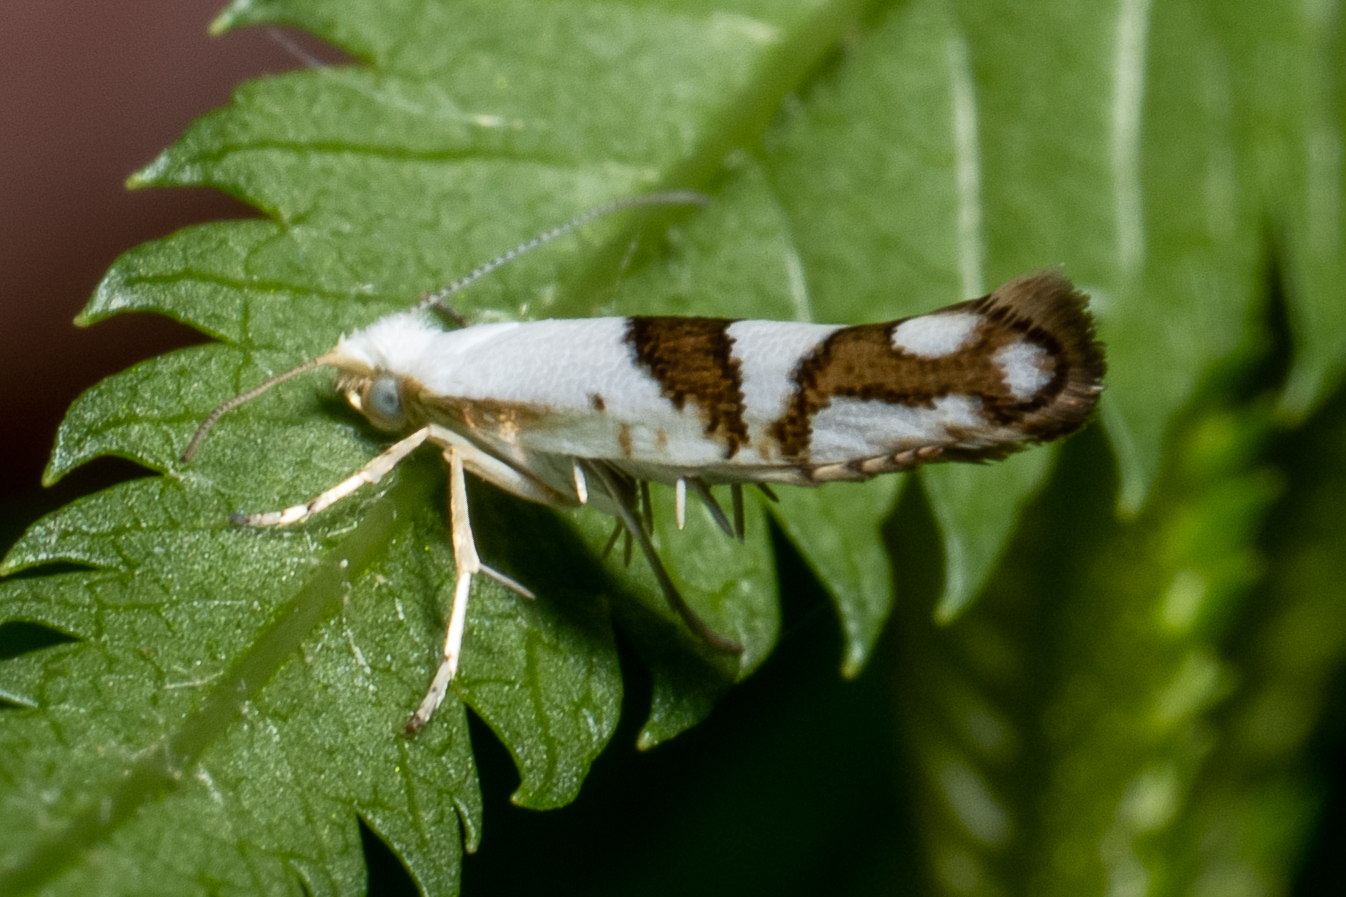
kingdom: Animalia
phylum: Arthropoda
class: Insecta
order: Lepidoptera
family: Argyresthiidae
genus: Argyresthia
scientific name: Argyresthia oreasella
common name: Cherry shoot borer moth
